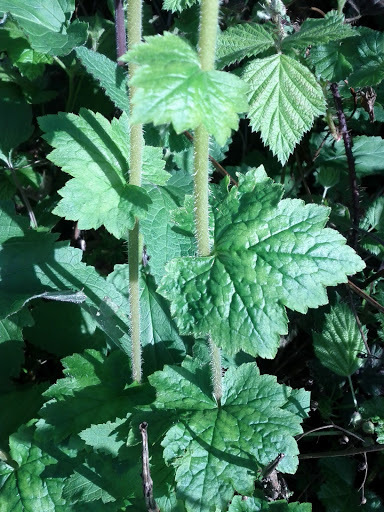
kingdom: Plantae
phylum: Tracheophyta
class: Magnoliopsida
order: Saxifragales
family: Saxifragaceae
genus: Tellima
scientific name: Tellima grandiflora
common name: Fringecups
